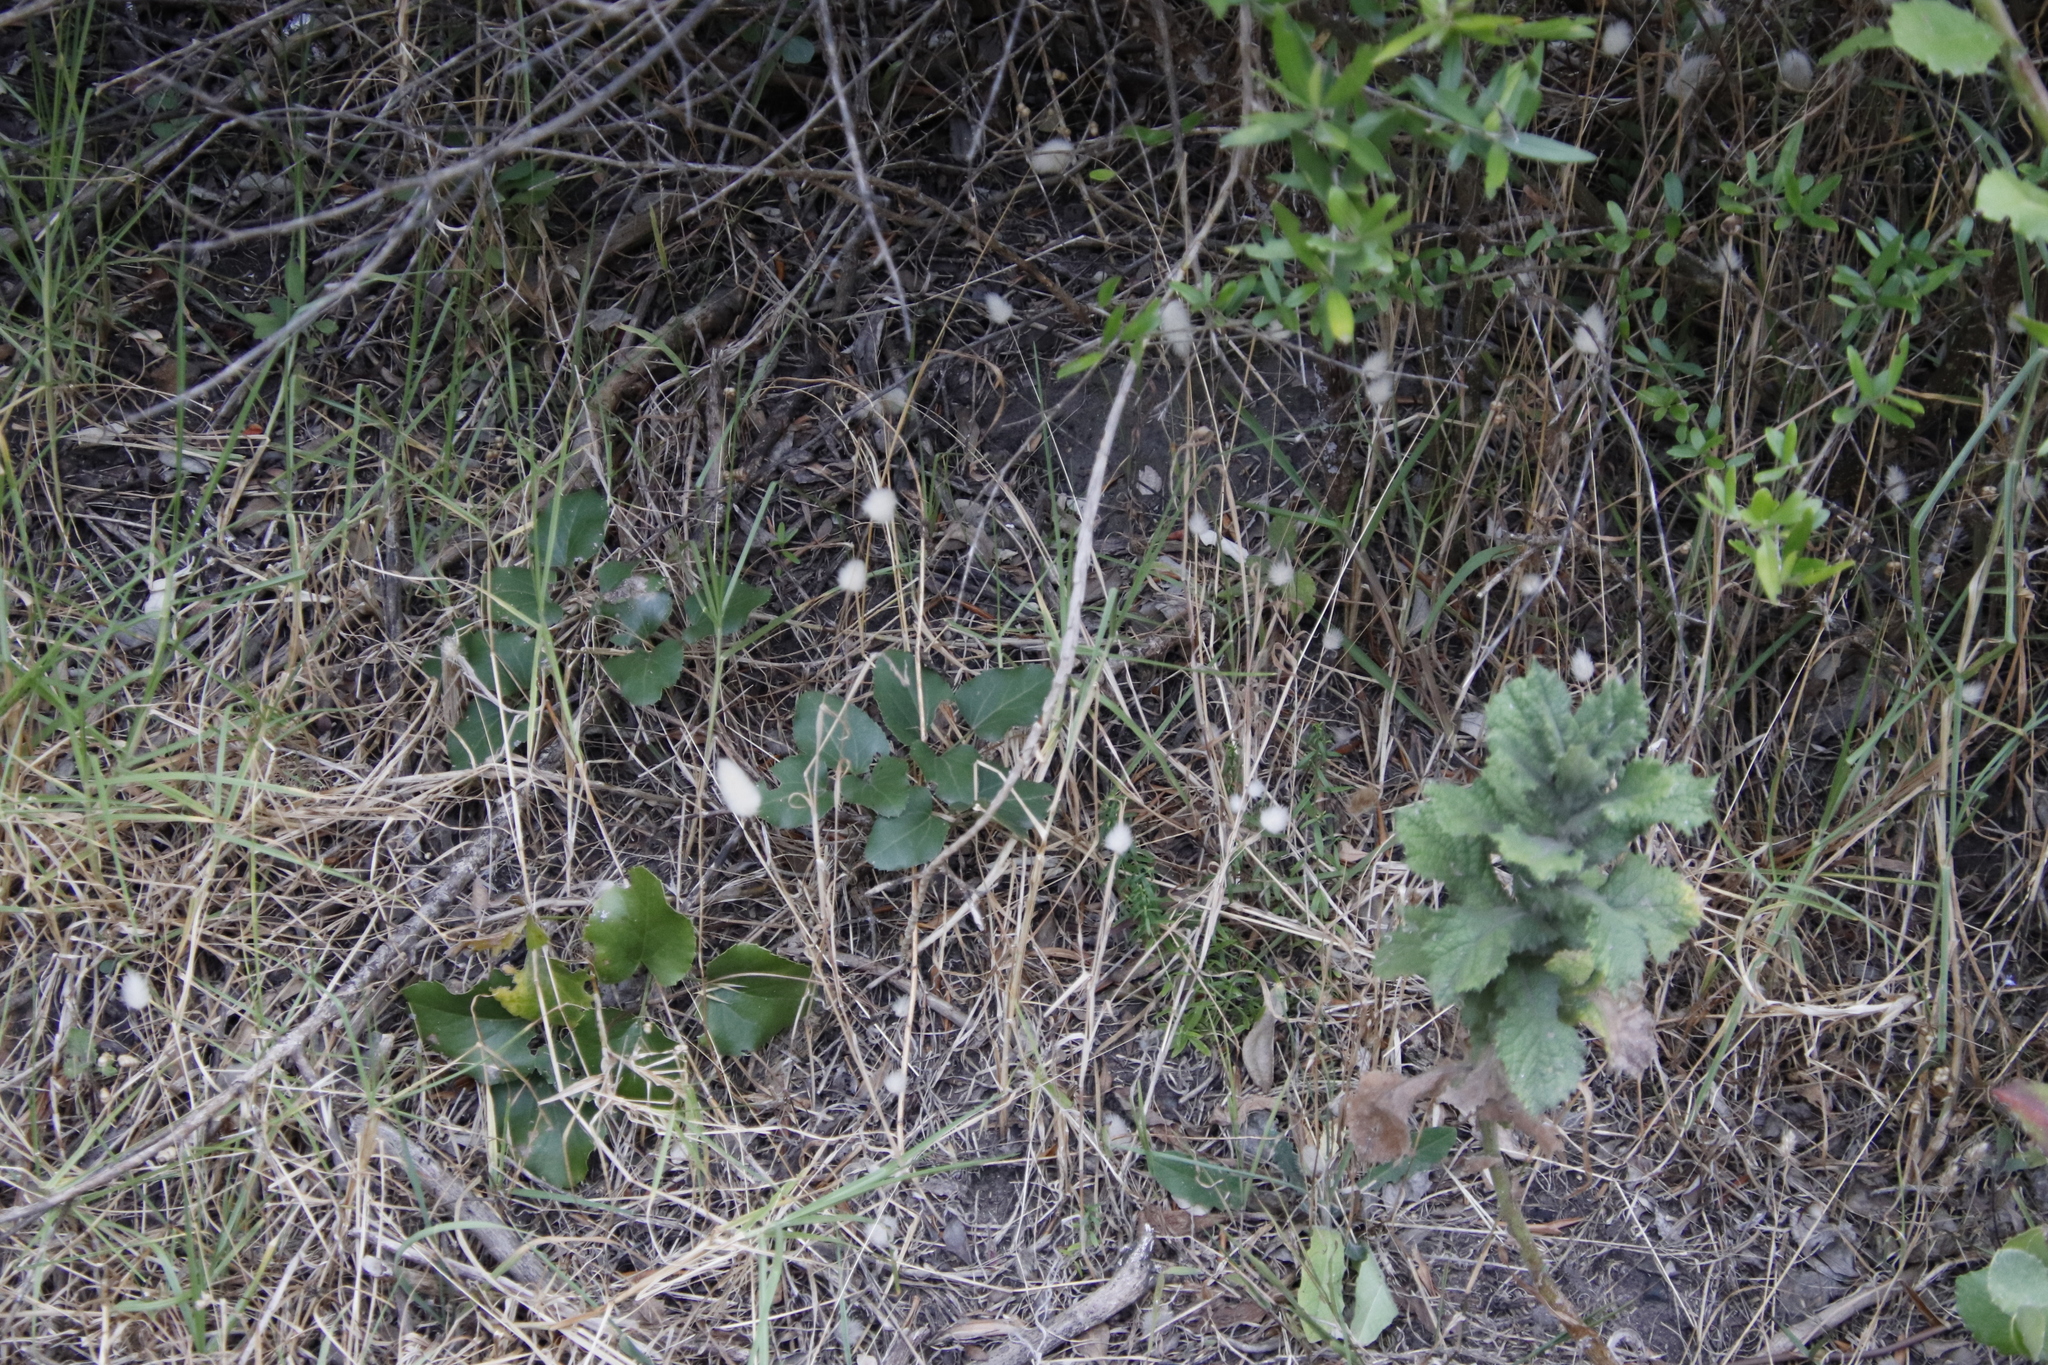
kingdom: Plantae
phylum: Tracheophyta
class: Liliopsida
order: Poales
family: Poaceae
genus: Lagurus
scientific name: Lagurus ovatus
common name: Hare's-tail
